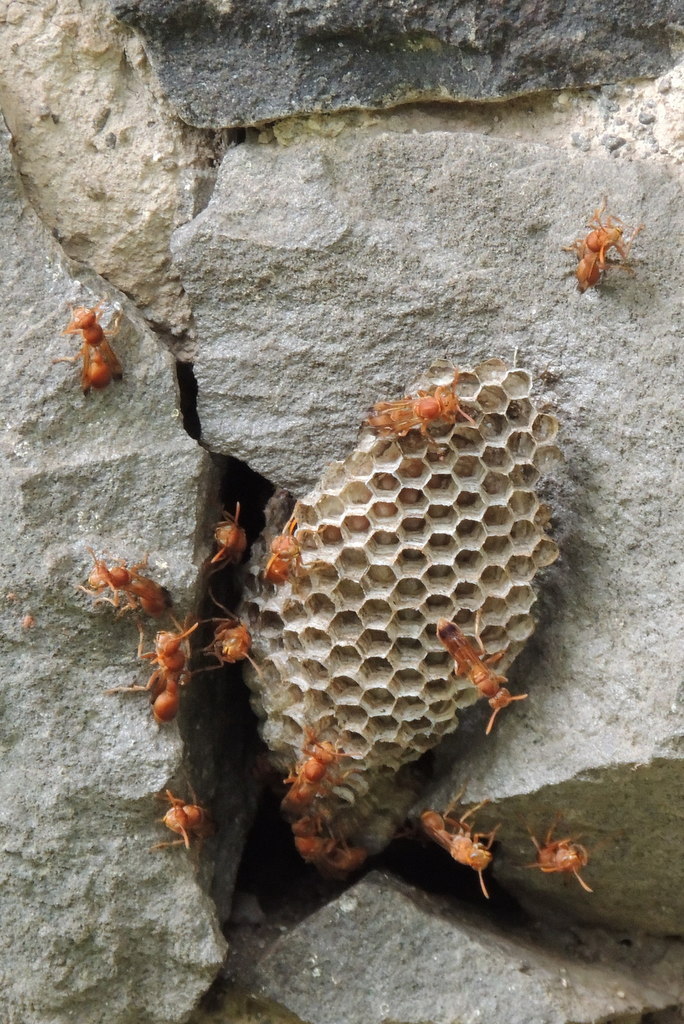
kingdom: Animalia
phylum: Arthropoda
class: Insecta
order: Hymenoptera
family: Vespidae
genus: Ropalidia
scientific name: Ropalidia marginata
